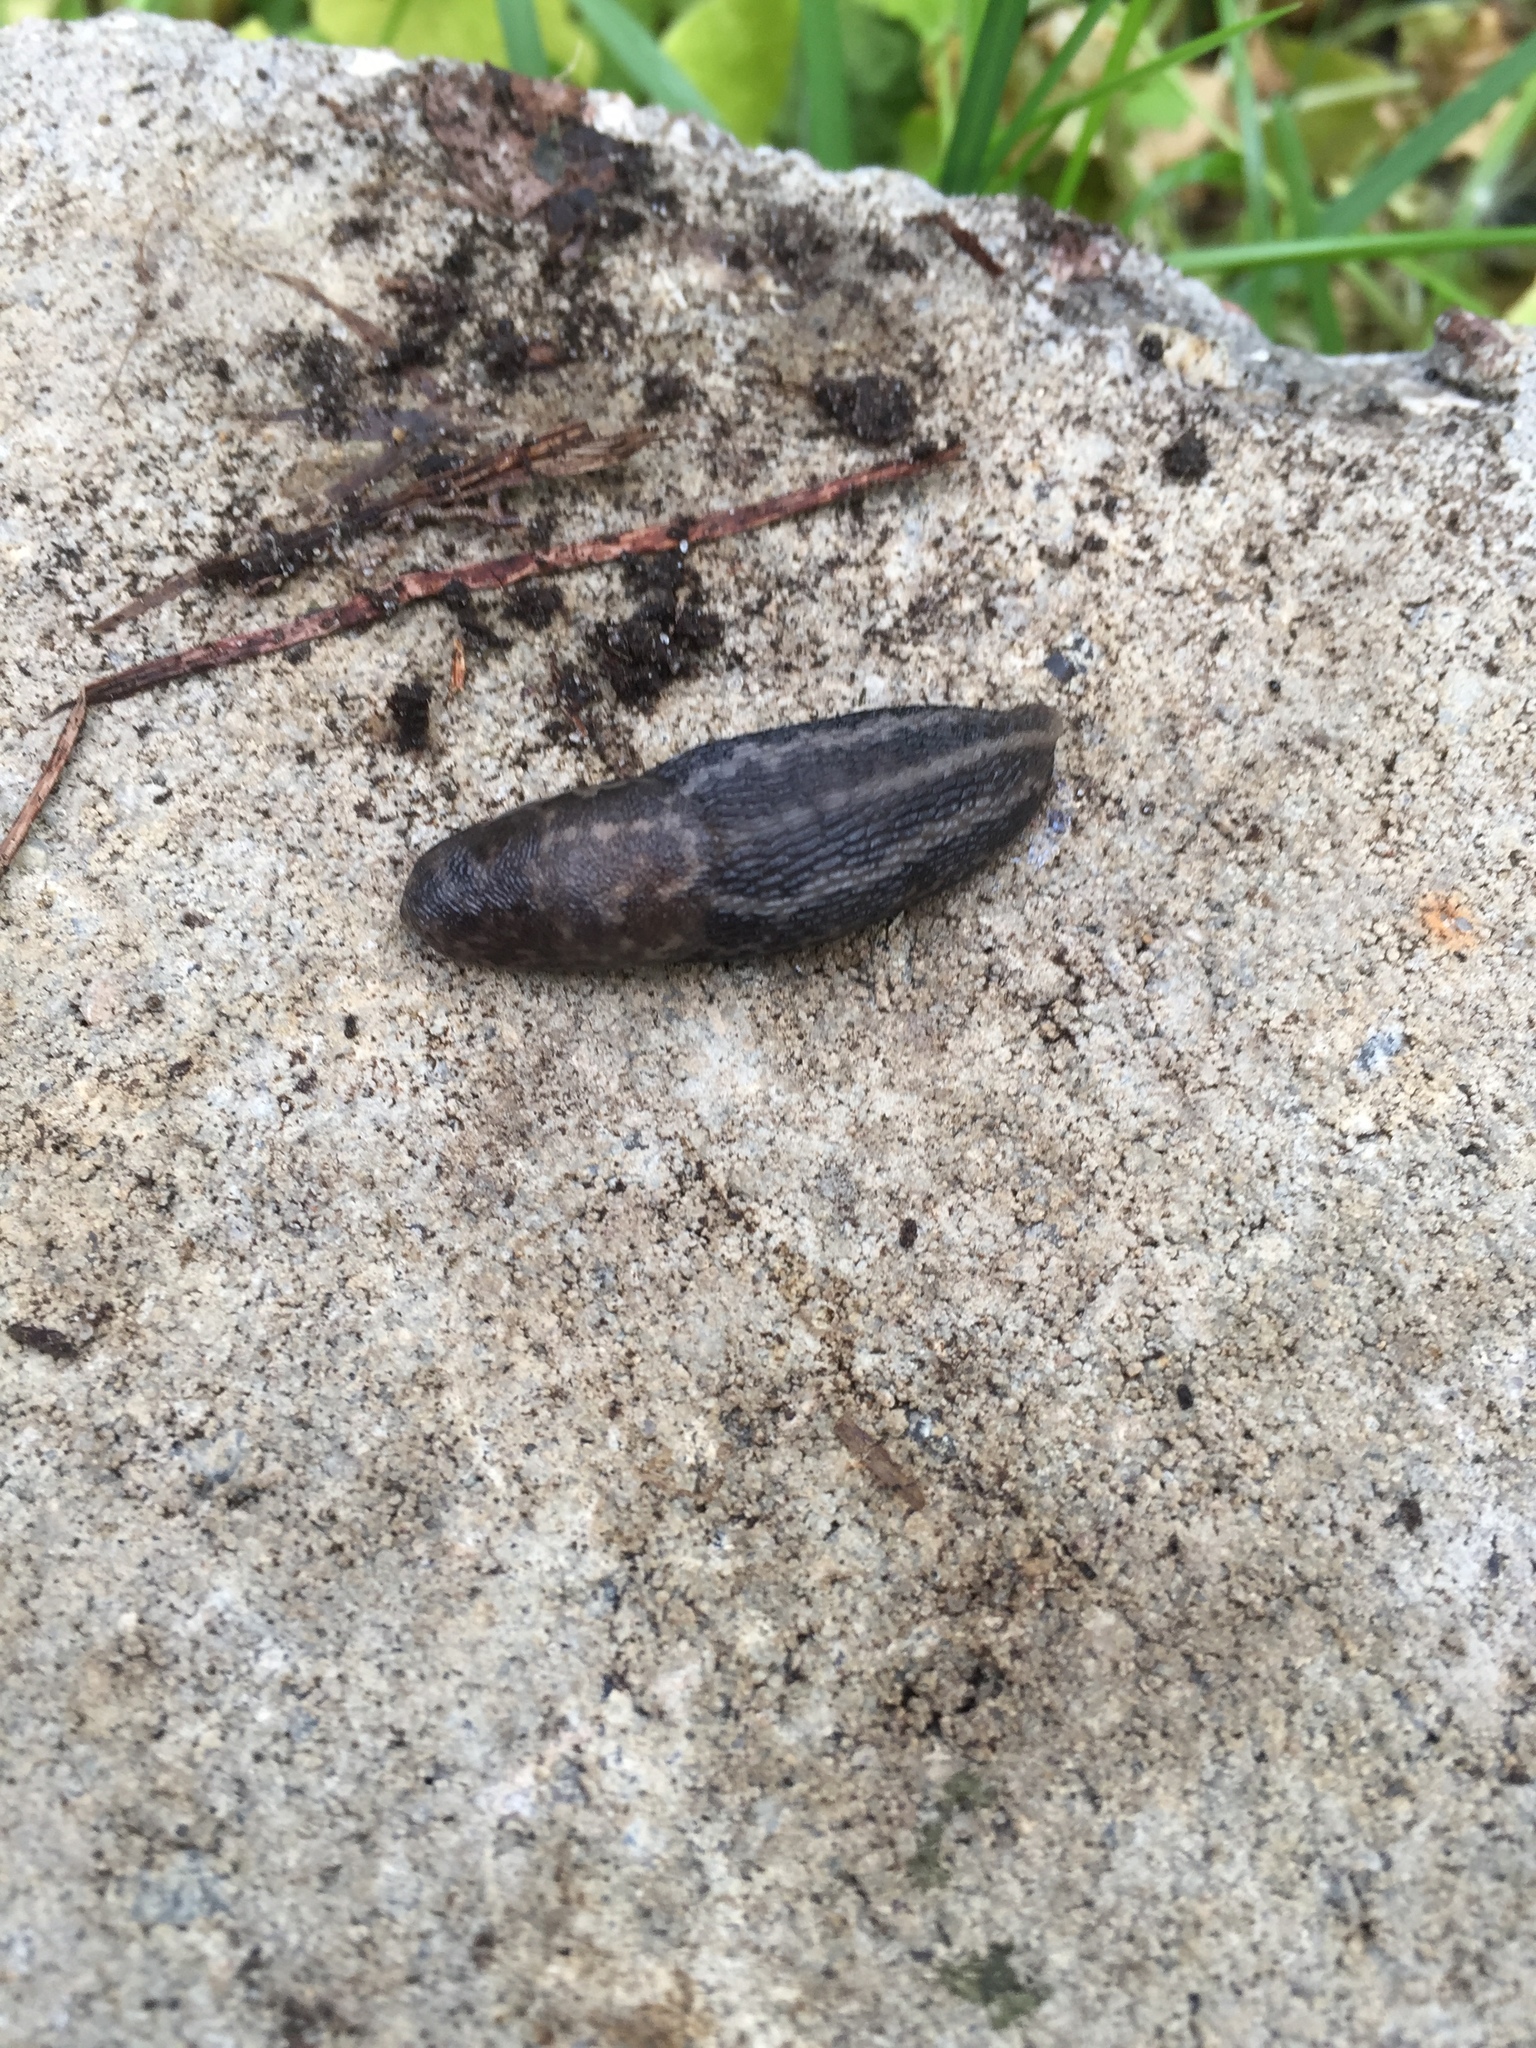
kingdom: Animalia
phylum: Mollusca
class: Gastropoda
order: Stylommatophora
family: Limacidae
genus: Limax
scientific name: Limax maximus
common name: Great grey slug
